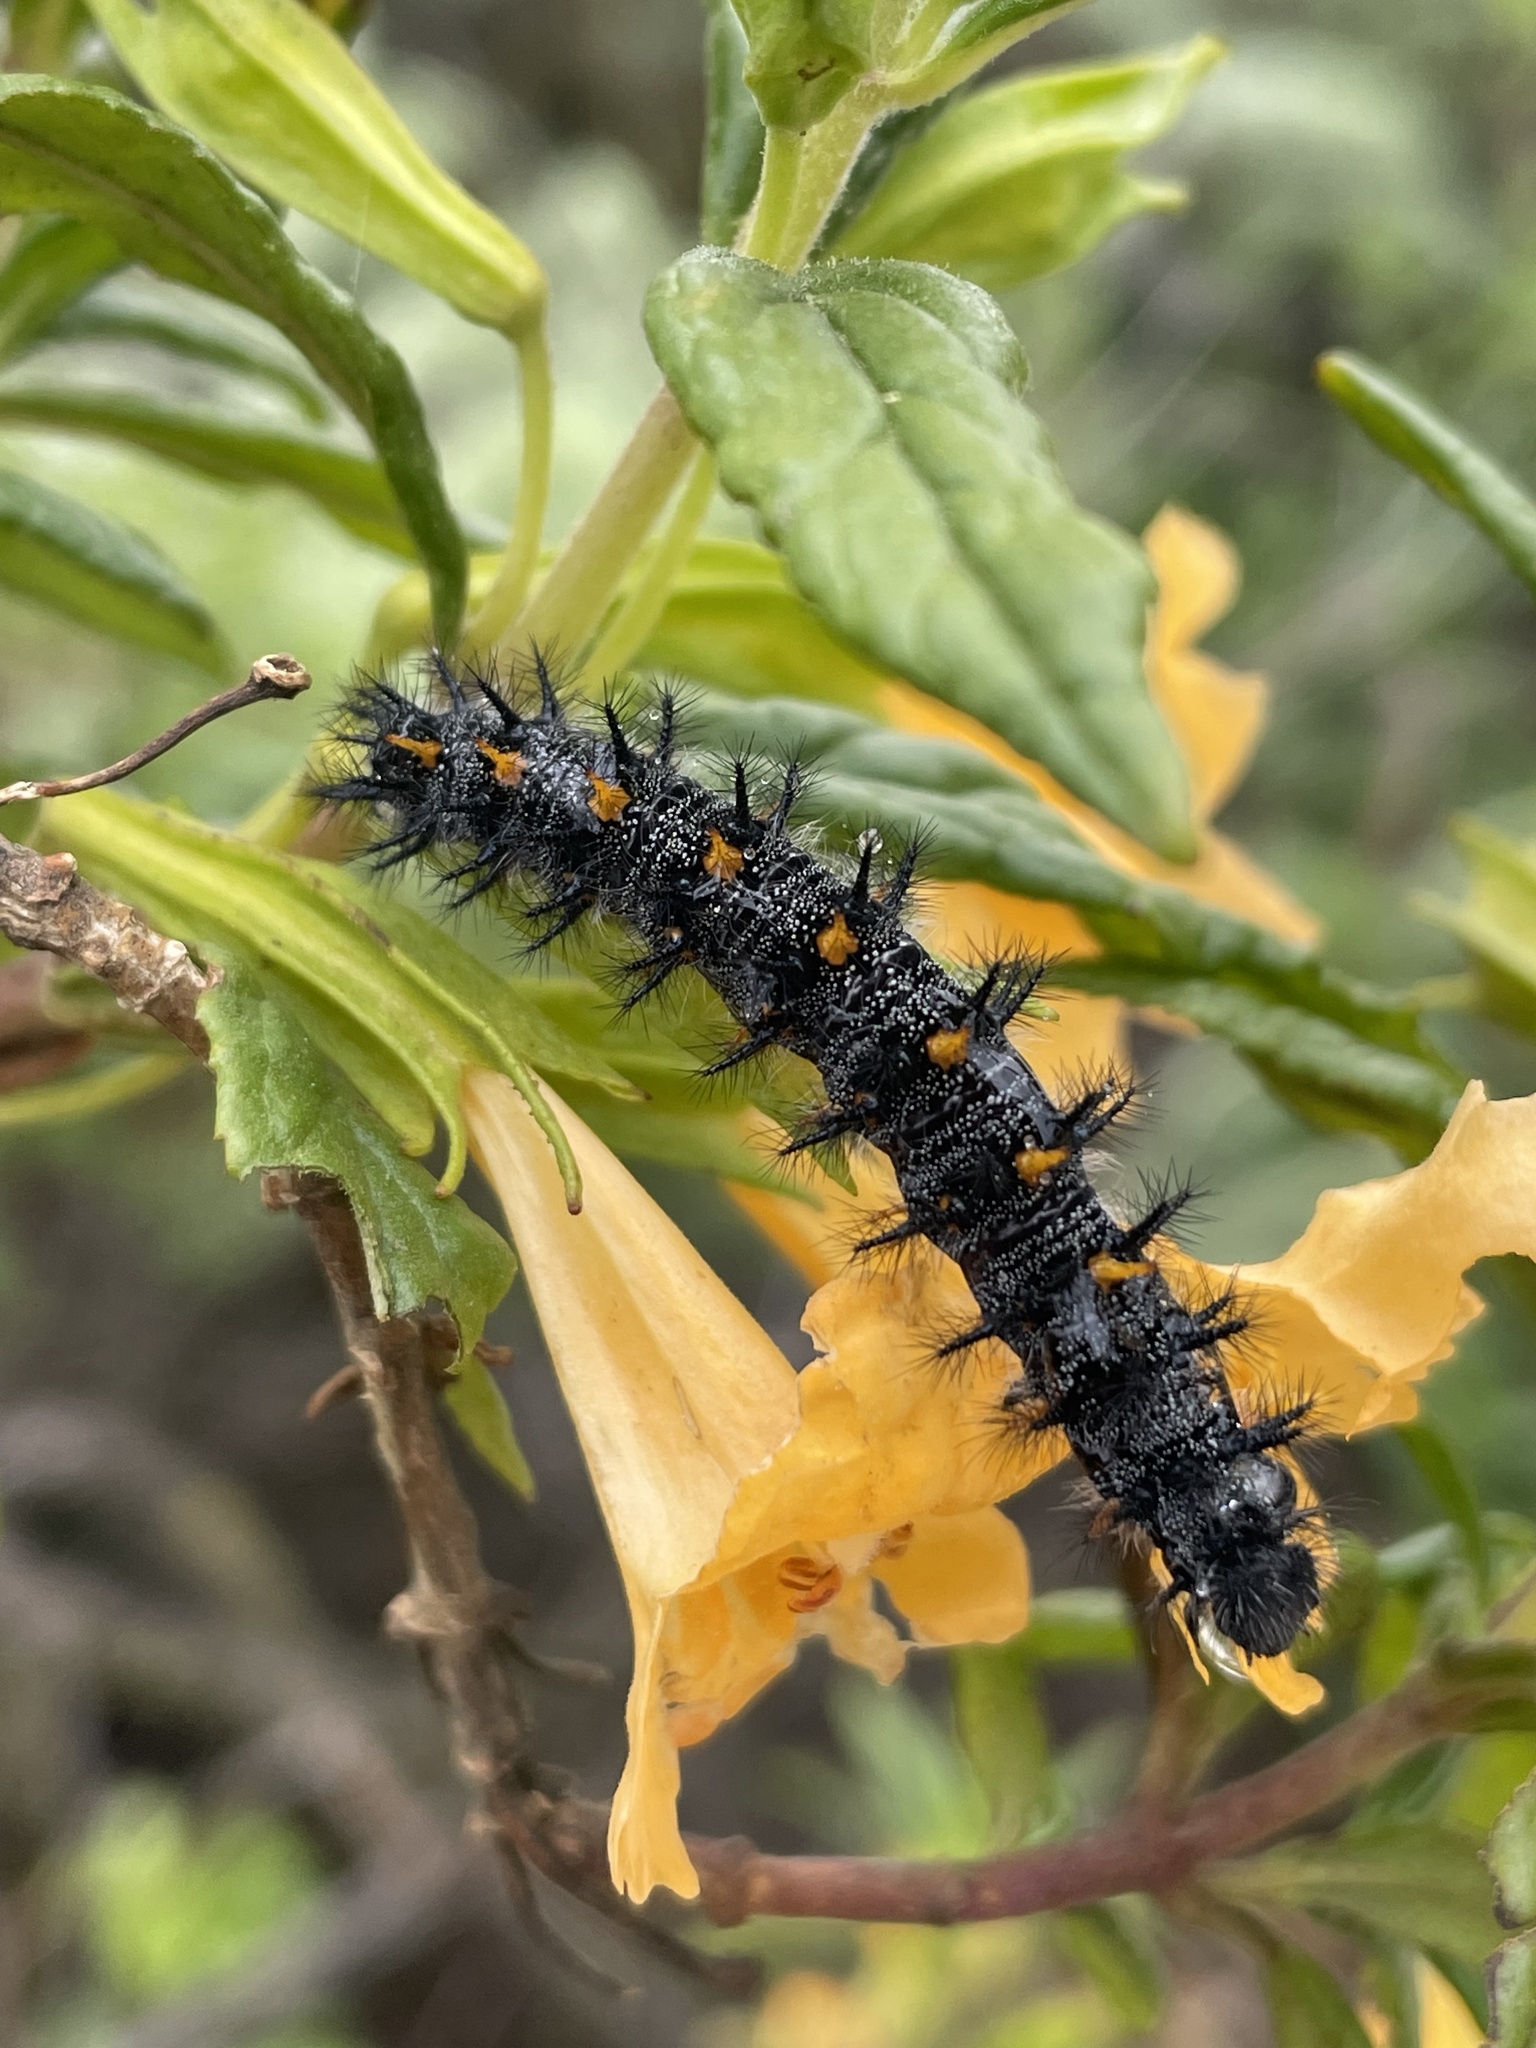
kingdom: Animalia
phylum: Arthropoda
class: Insecta
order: Lepidoptera
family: Nymphalidae
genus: Occidryas
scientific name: Occidryas chalcedona
